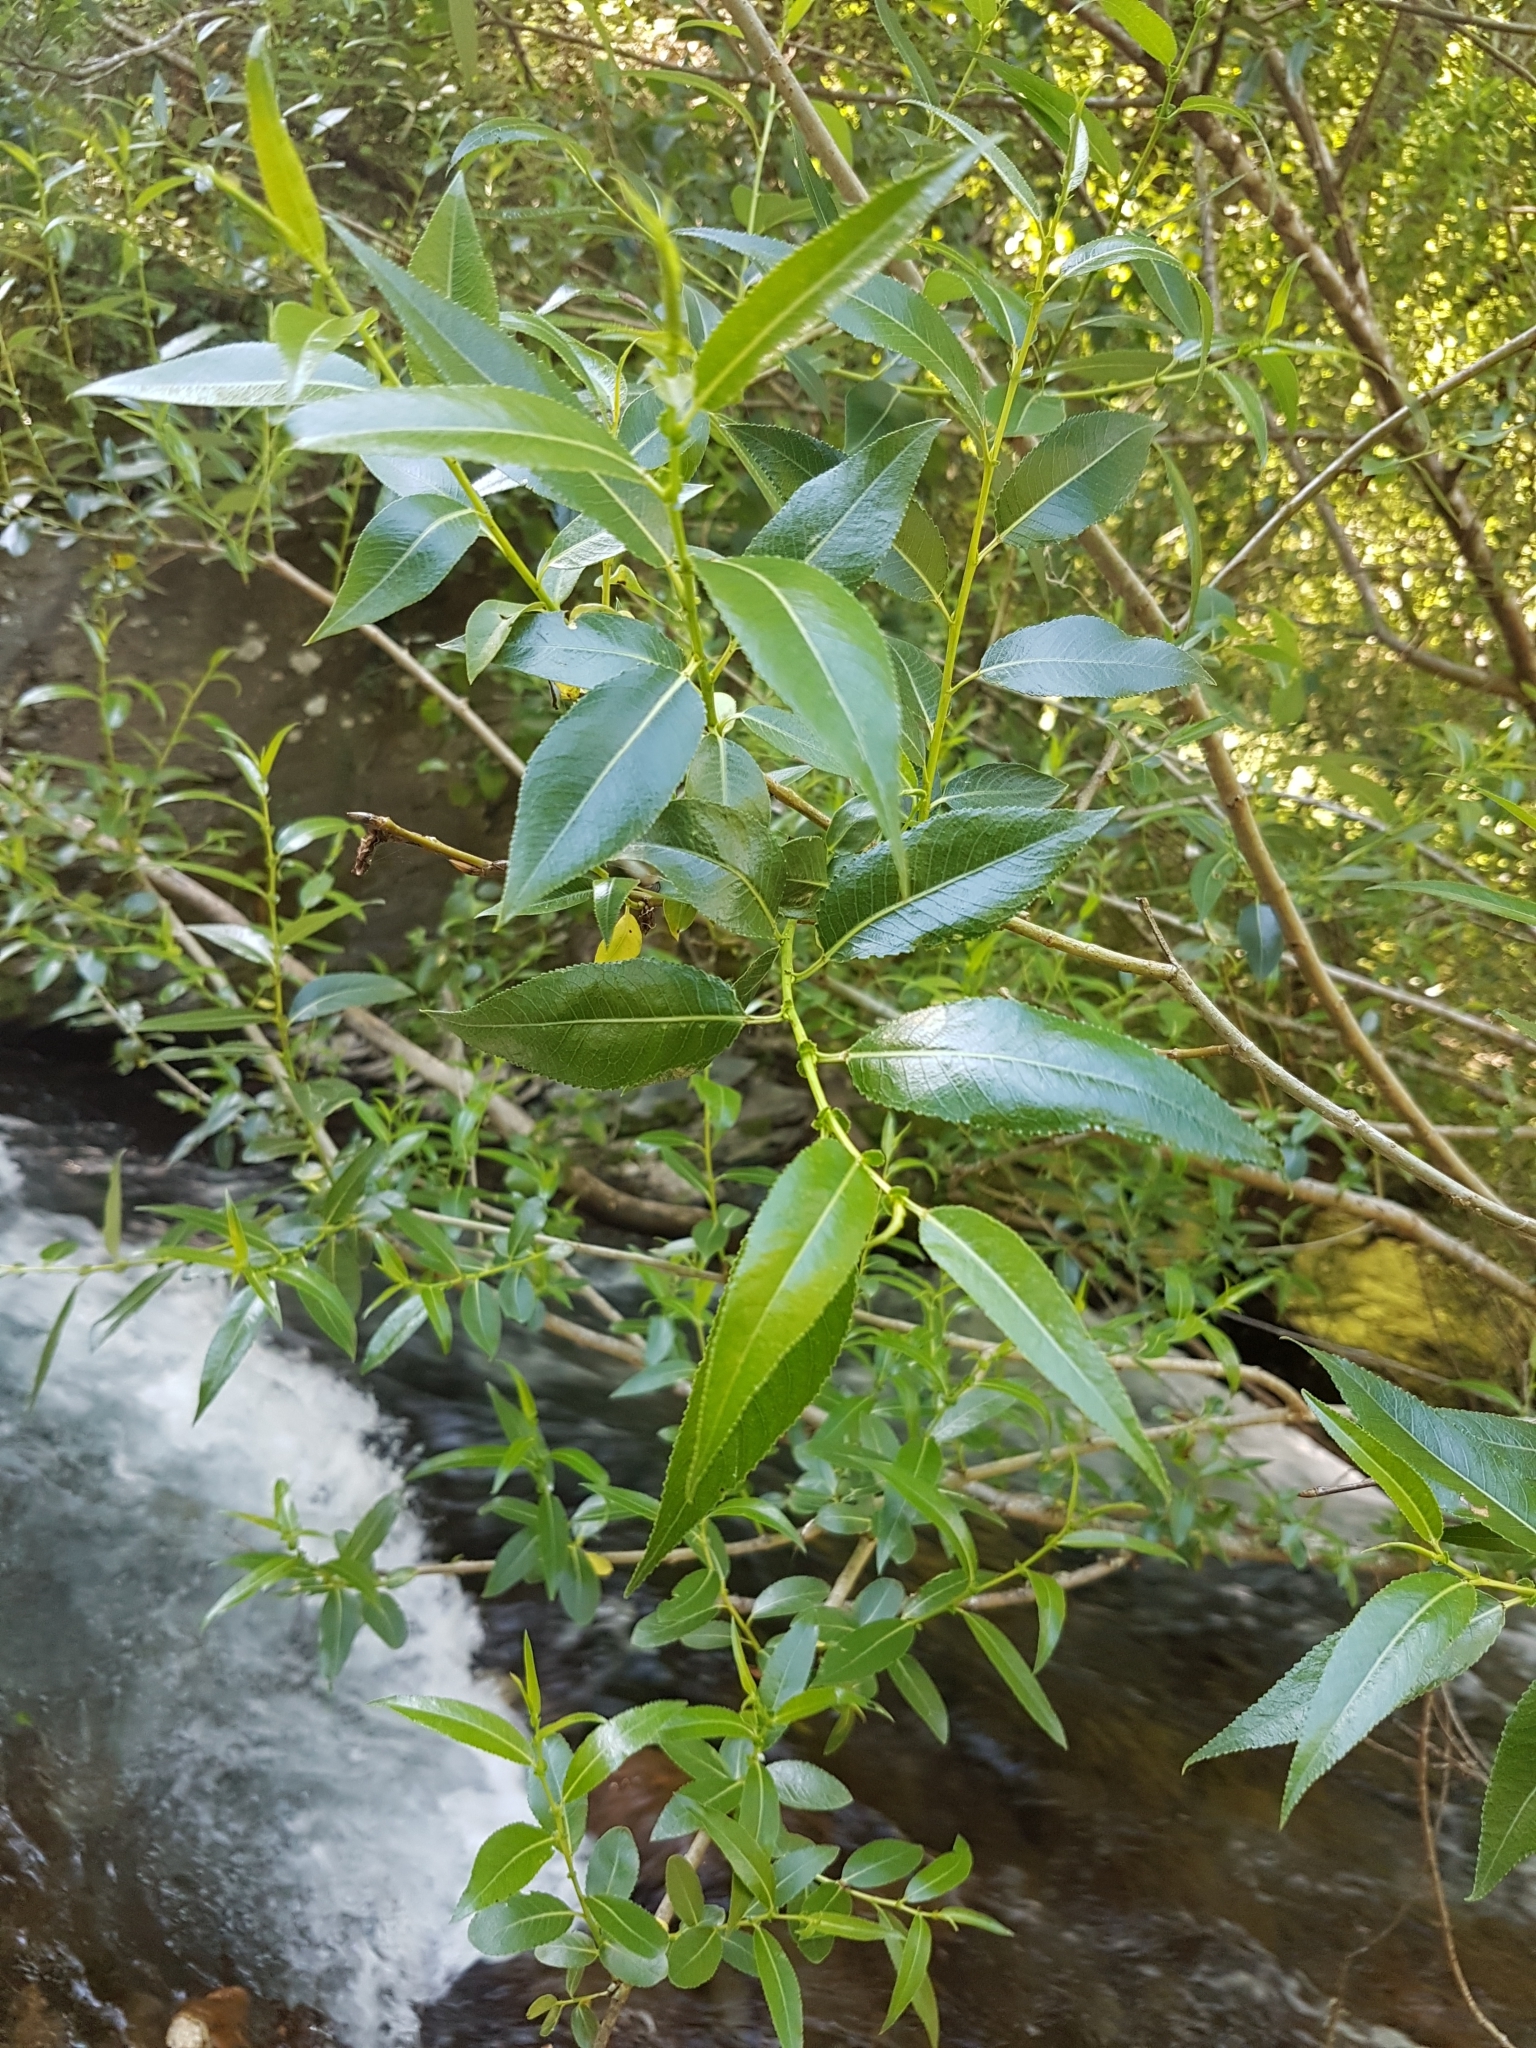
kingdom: Plantae
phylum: Tracheophyta
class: Magnoliopsida
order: Malpighiales
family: Salicaceae
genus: Salix
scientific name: Salix alba
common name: White willow
